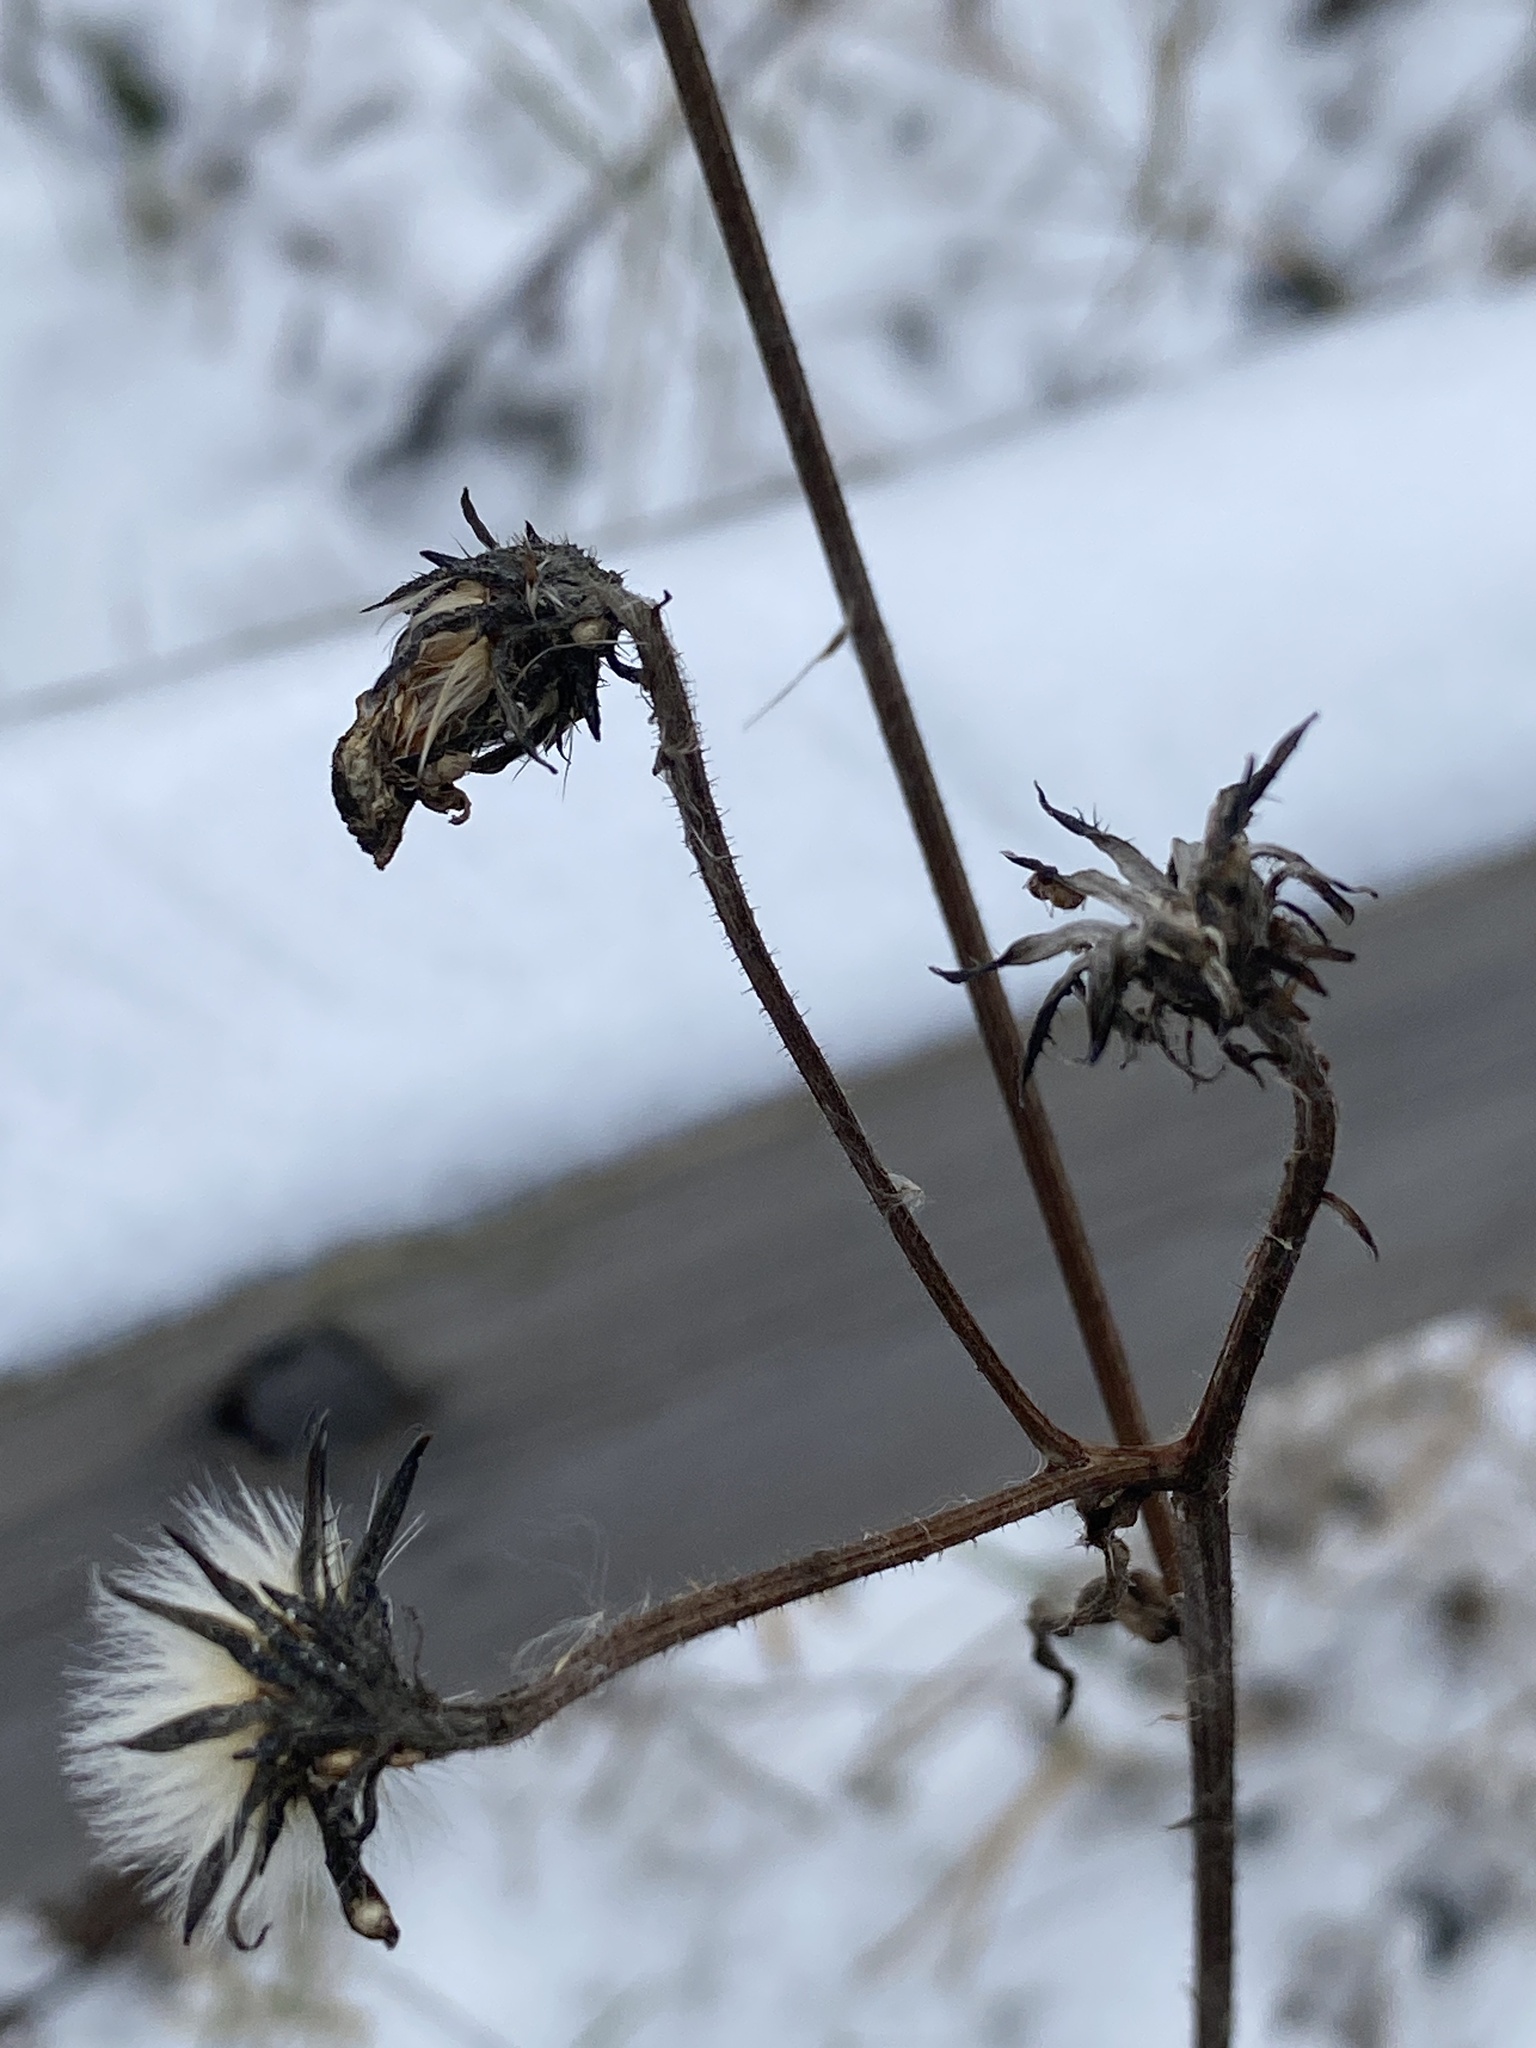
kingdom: Plantae
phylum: Tracheophyta
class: Magnoliopsida
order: Asterales
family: Asteraceae
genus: Picris
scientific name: Picris hieracioides
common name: Hawkweed oxtongue
